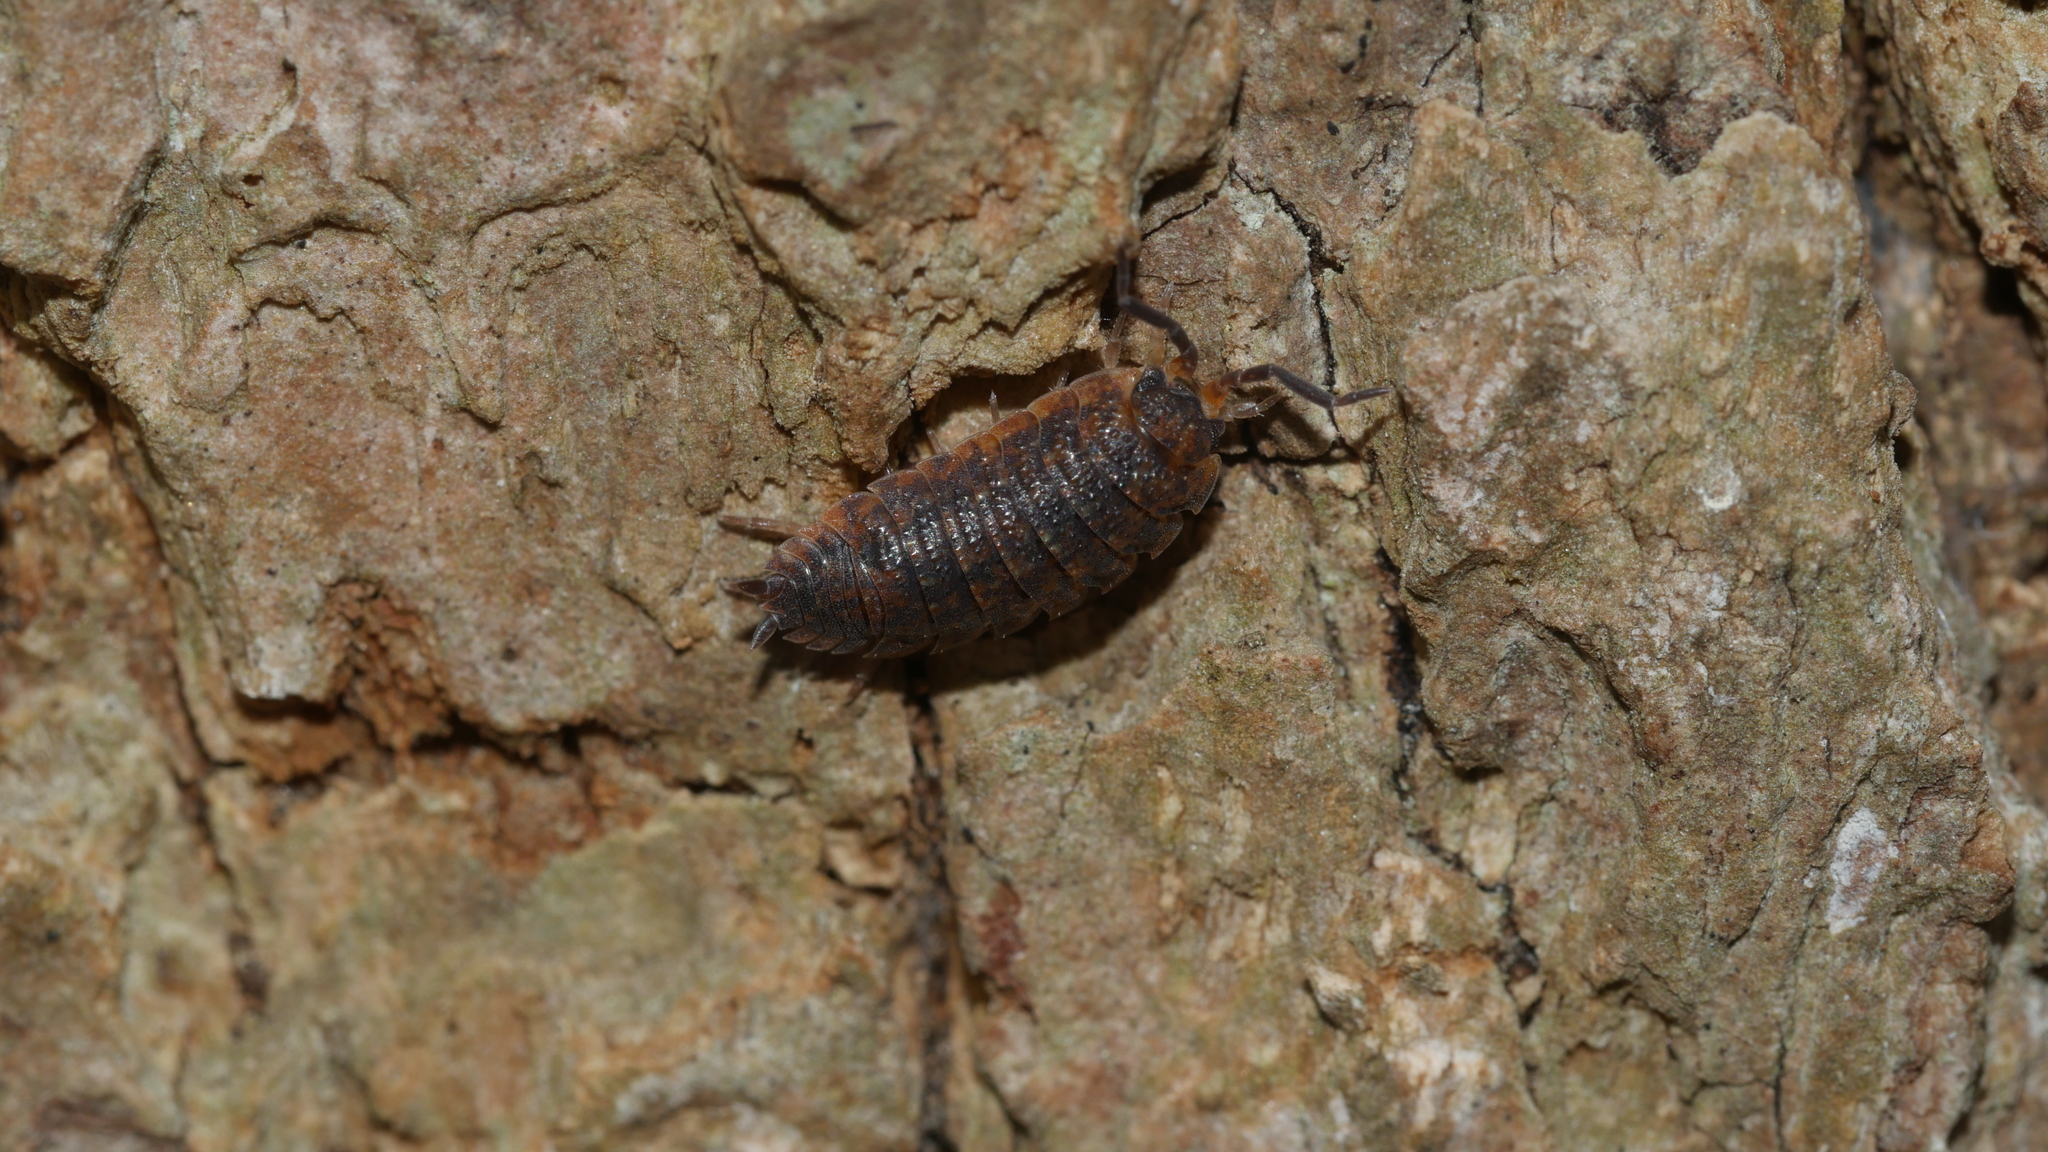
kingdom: Animalia
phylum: Arthropoda
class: Malacostraca
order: Isopoda
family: Porcellionidae
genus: Porcellio
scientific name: Porcellio scaber
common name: Common rough woodlouse
